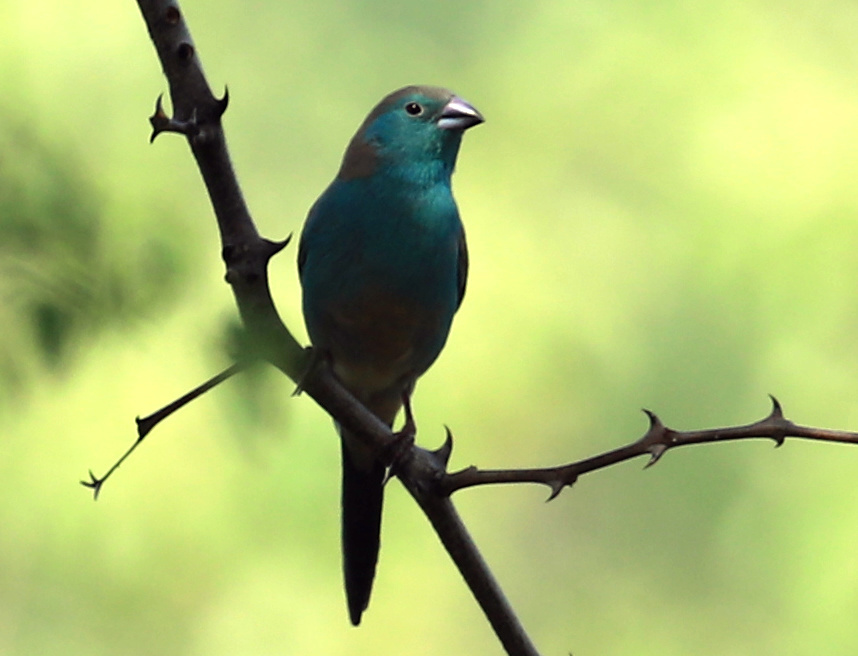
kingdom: Animalia
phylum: Chordata
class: Aves
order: Passeriformes
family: Estrildidae
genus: Uraeginthus
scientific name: Uraeginthus angolensis
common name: Blue waxbill
